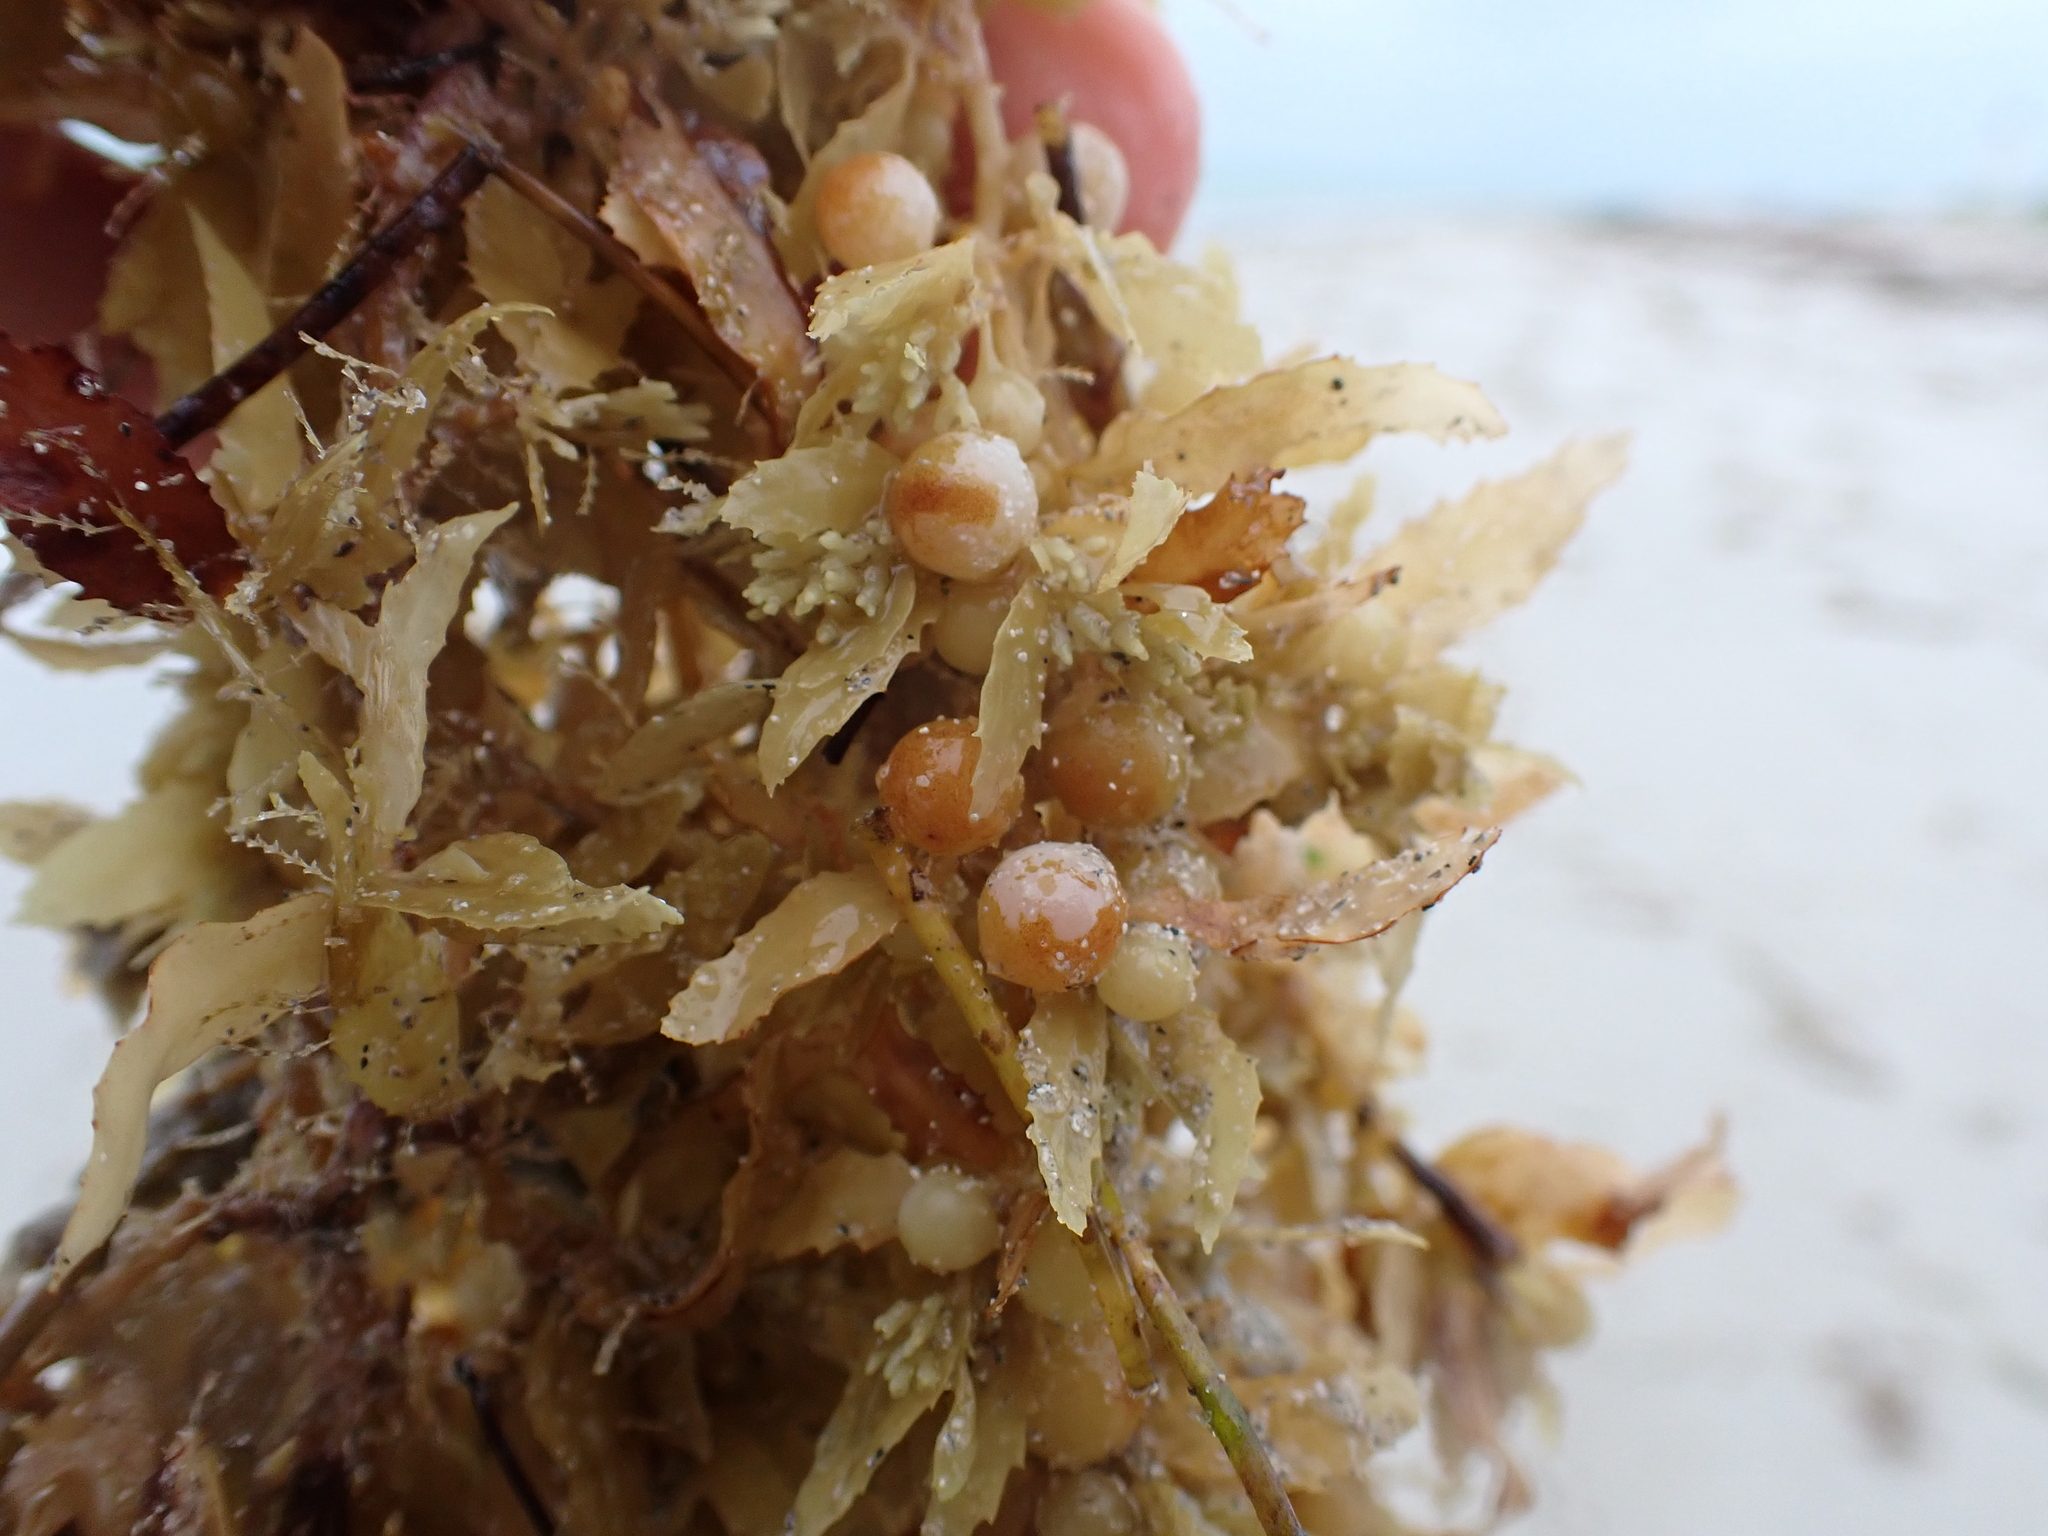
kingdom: Chromista
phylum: Ochrophyta
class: Phaeophyceae
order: Fucales
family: Sargassaceae
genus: Sargassum
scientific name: Sargassum fluitans
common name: Sargassum seaweed
